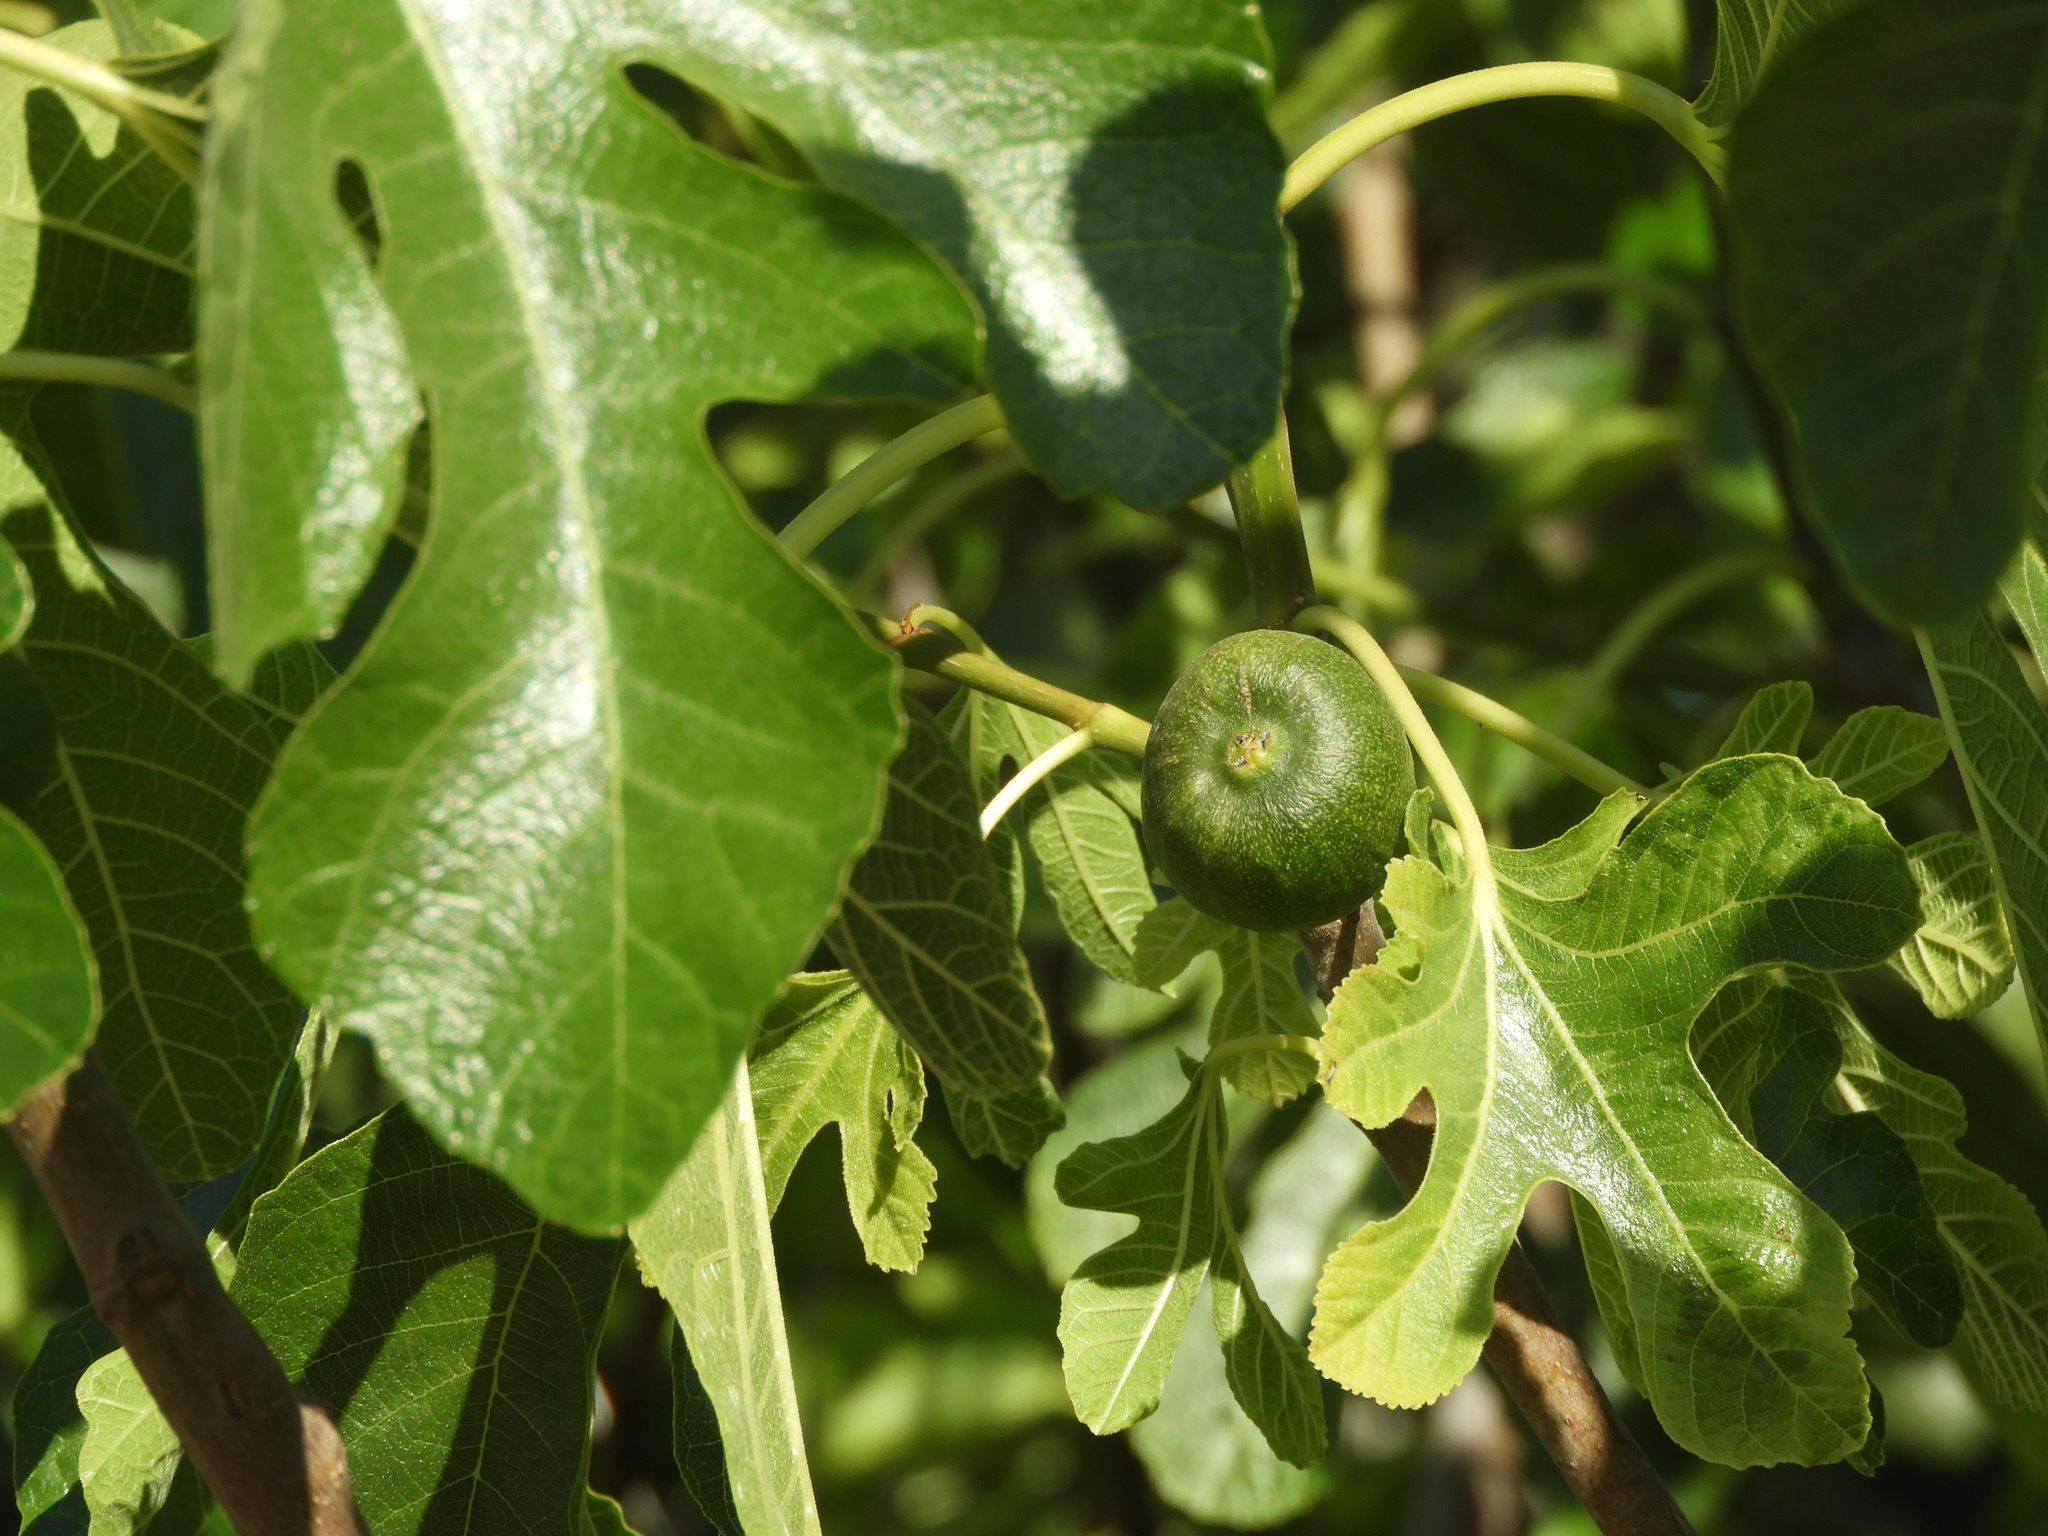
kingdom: Plantae
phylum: Tracheophyta
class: Magnoliopsida
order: Rosales
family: Moraceae
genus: Ficus
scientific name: Ficus carica
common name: Fig
